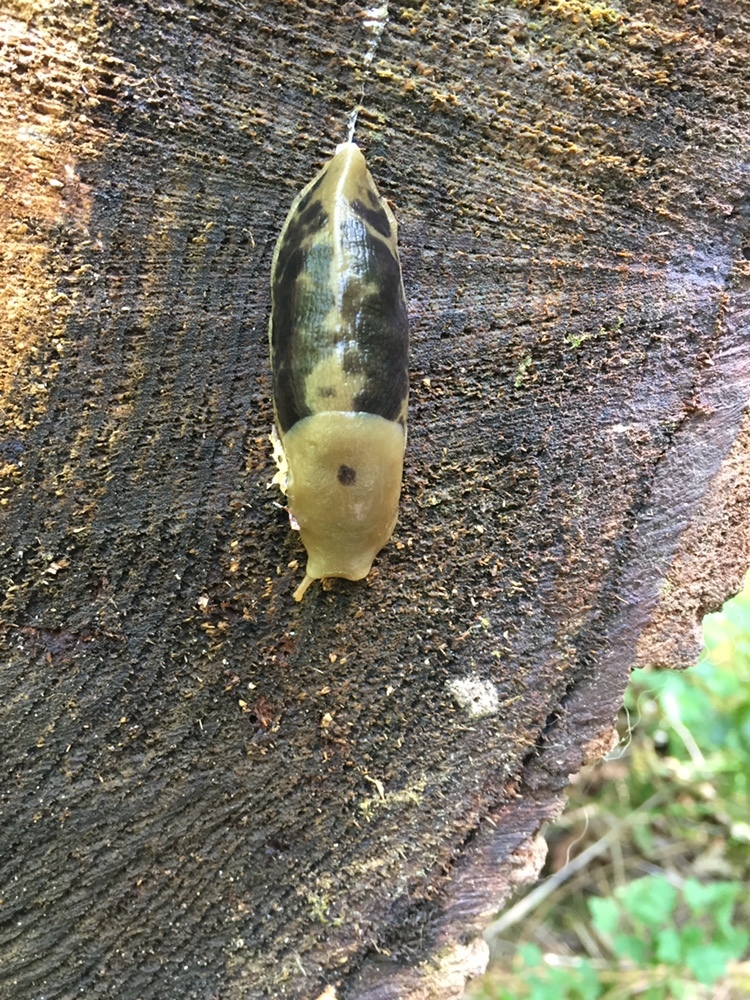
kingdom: Animalia
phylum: Mollusca
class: Gastropoda
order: Stylommatophora
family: Ariolimacidae
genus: Ariolimax
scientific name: Ariolimax columbianus
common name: Pacific banana slug
